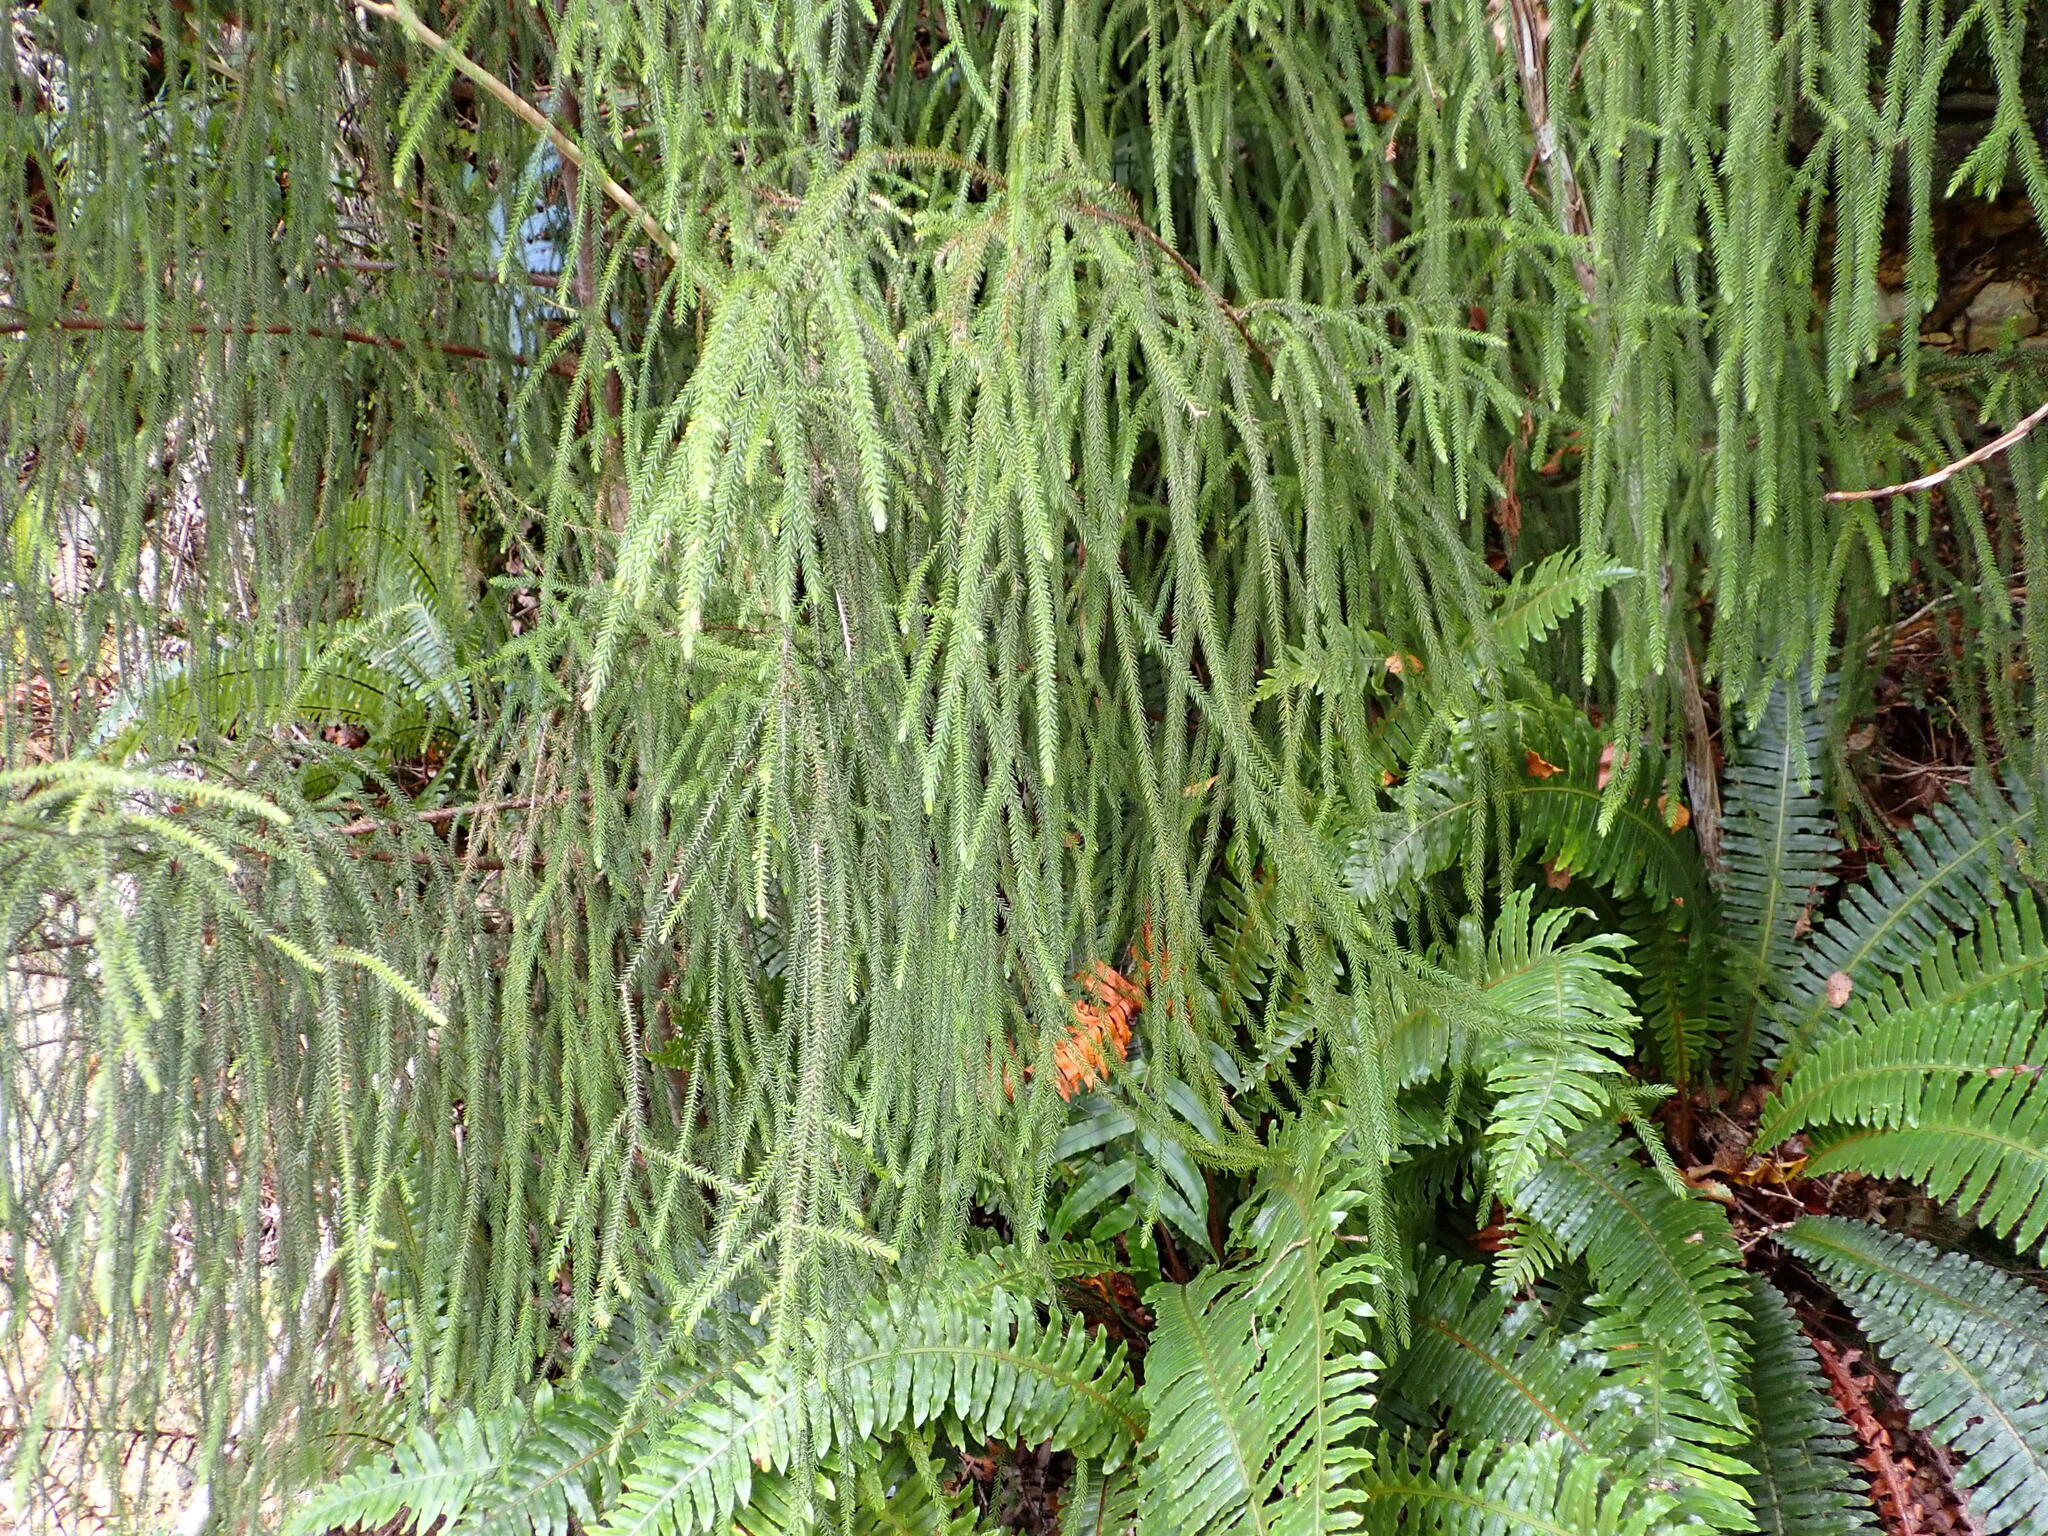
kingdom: Plantae
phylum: Tracheophyta
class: Pinopsida
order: Pinales
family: Podocarpaceae
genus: Dacrydium
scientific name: Dacrydium cupressinum
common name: Red pine
